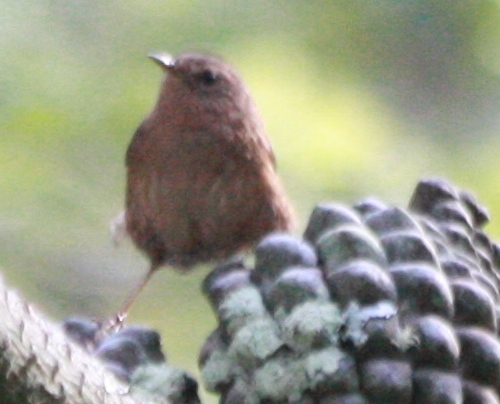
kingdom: Animalia
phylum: Chordata
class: Aves
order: Passeriformes
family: Troglodytidae
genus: Troglodytes
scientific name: Troglodytes pacificus
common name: Pacific wren
